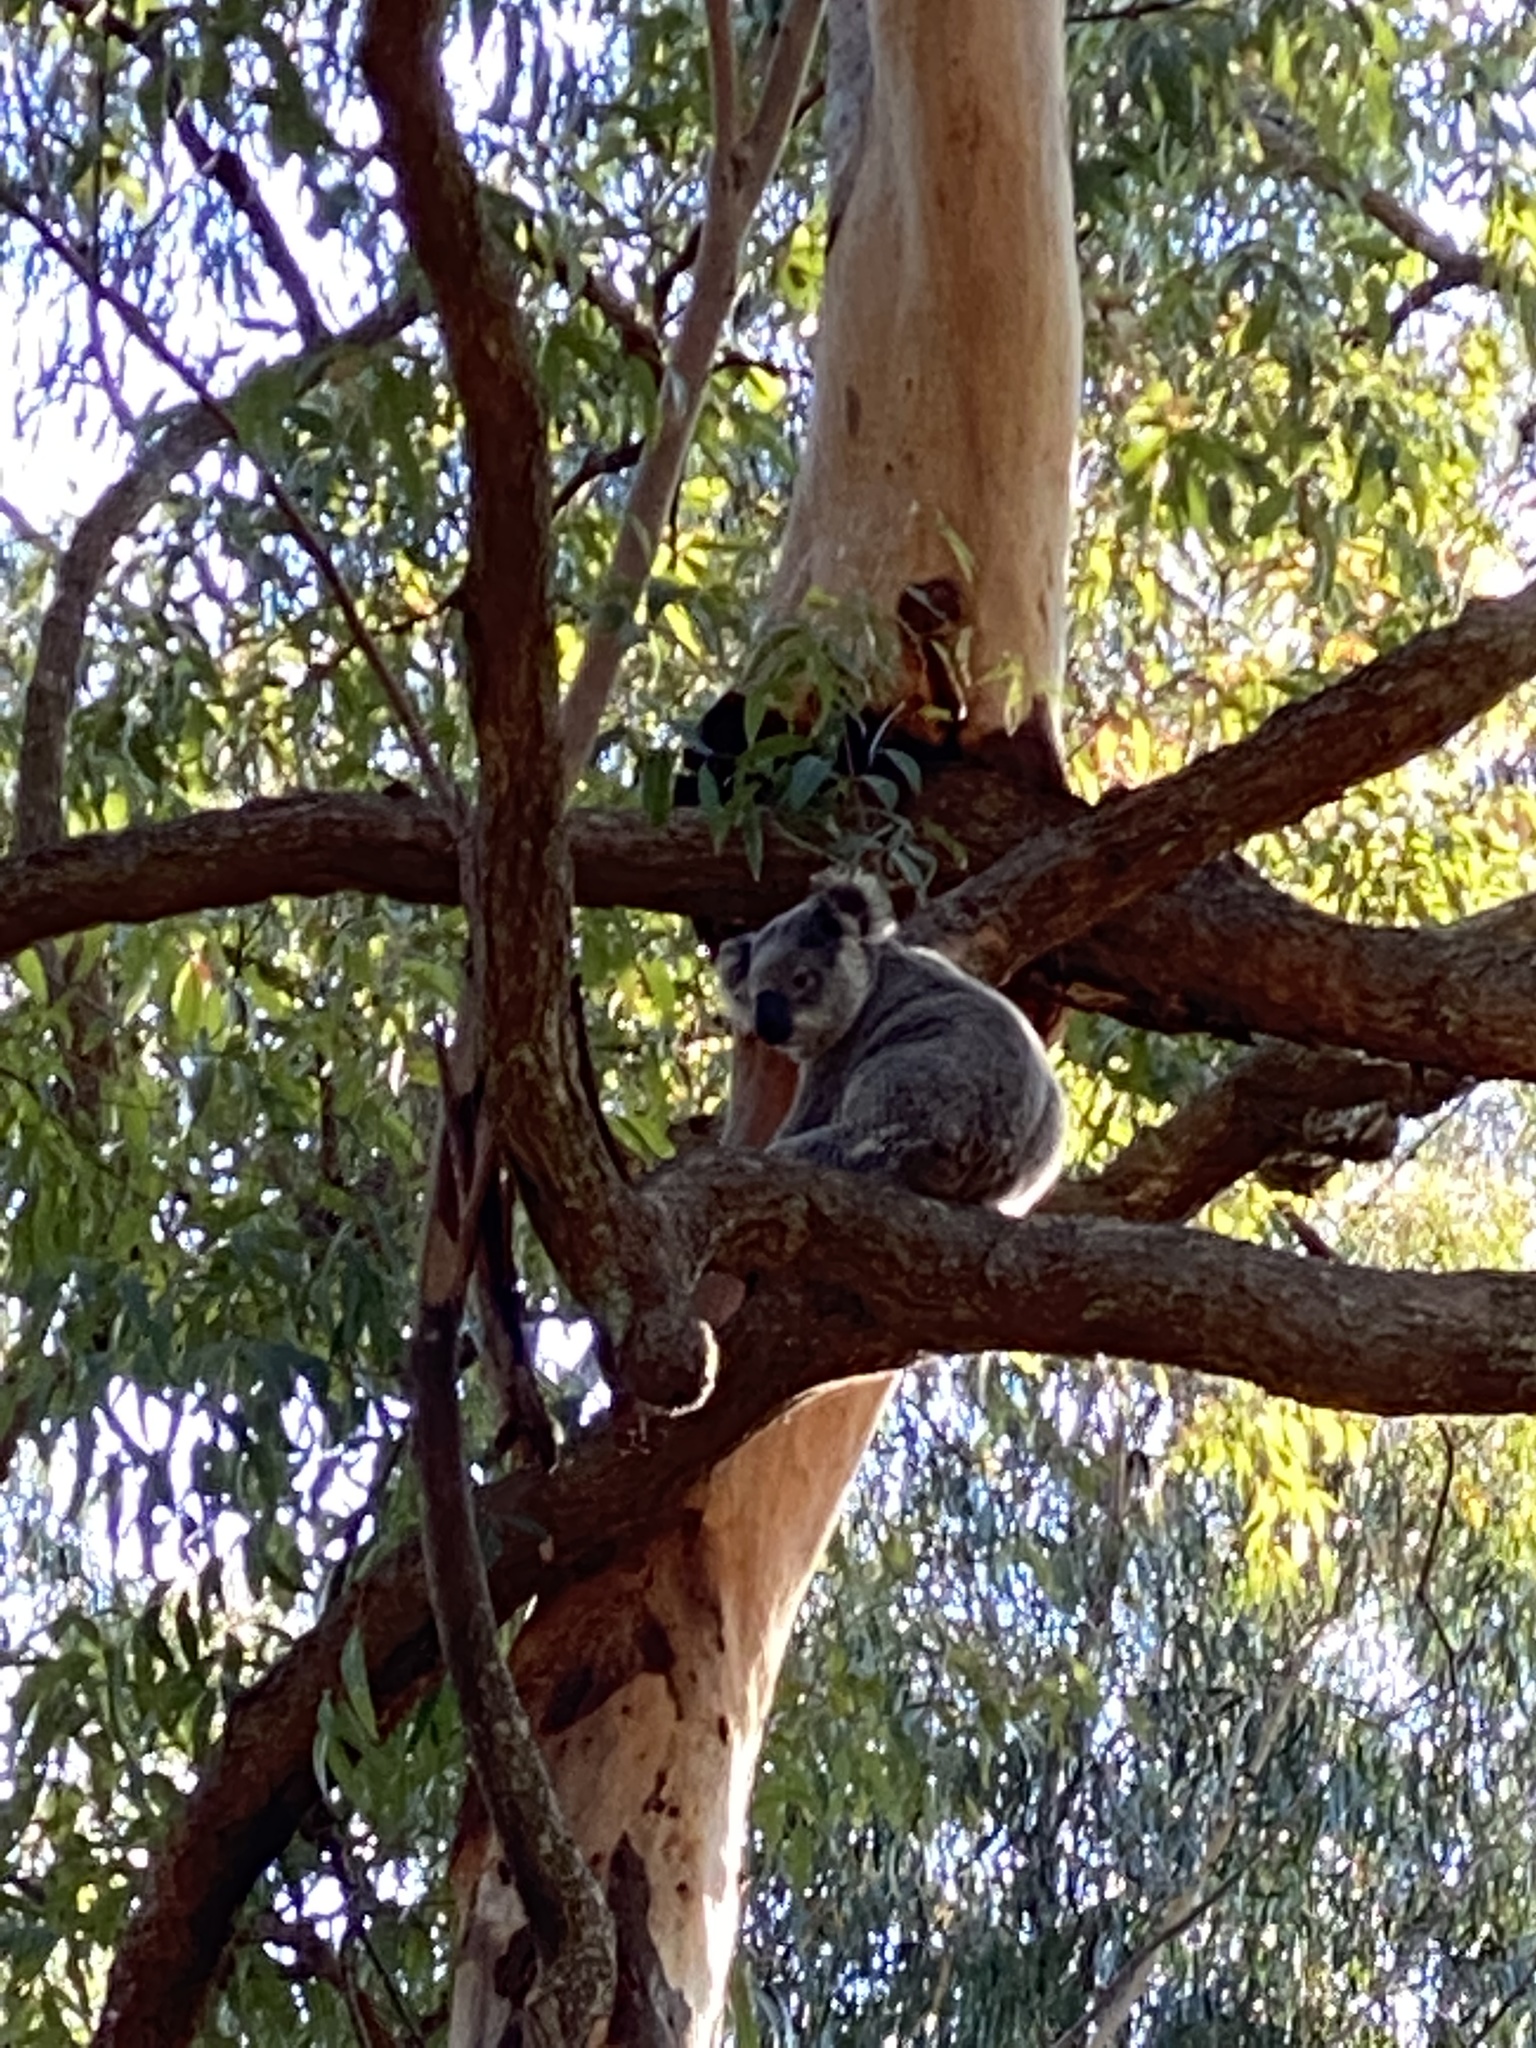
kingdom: Animalia
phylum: Chordata
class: Mammalia
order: Diprotodontia
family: Phascolarctidae
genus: Phascolarctos
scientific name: Phascolarctos cinereus
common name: Koala
